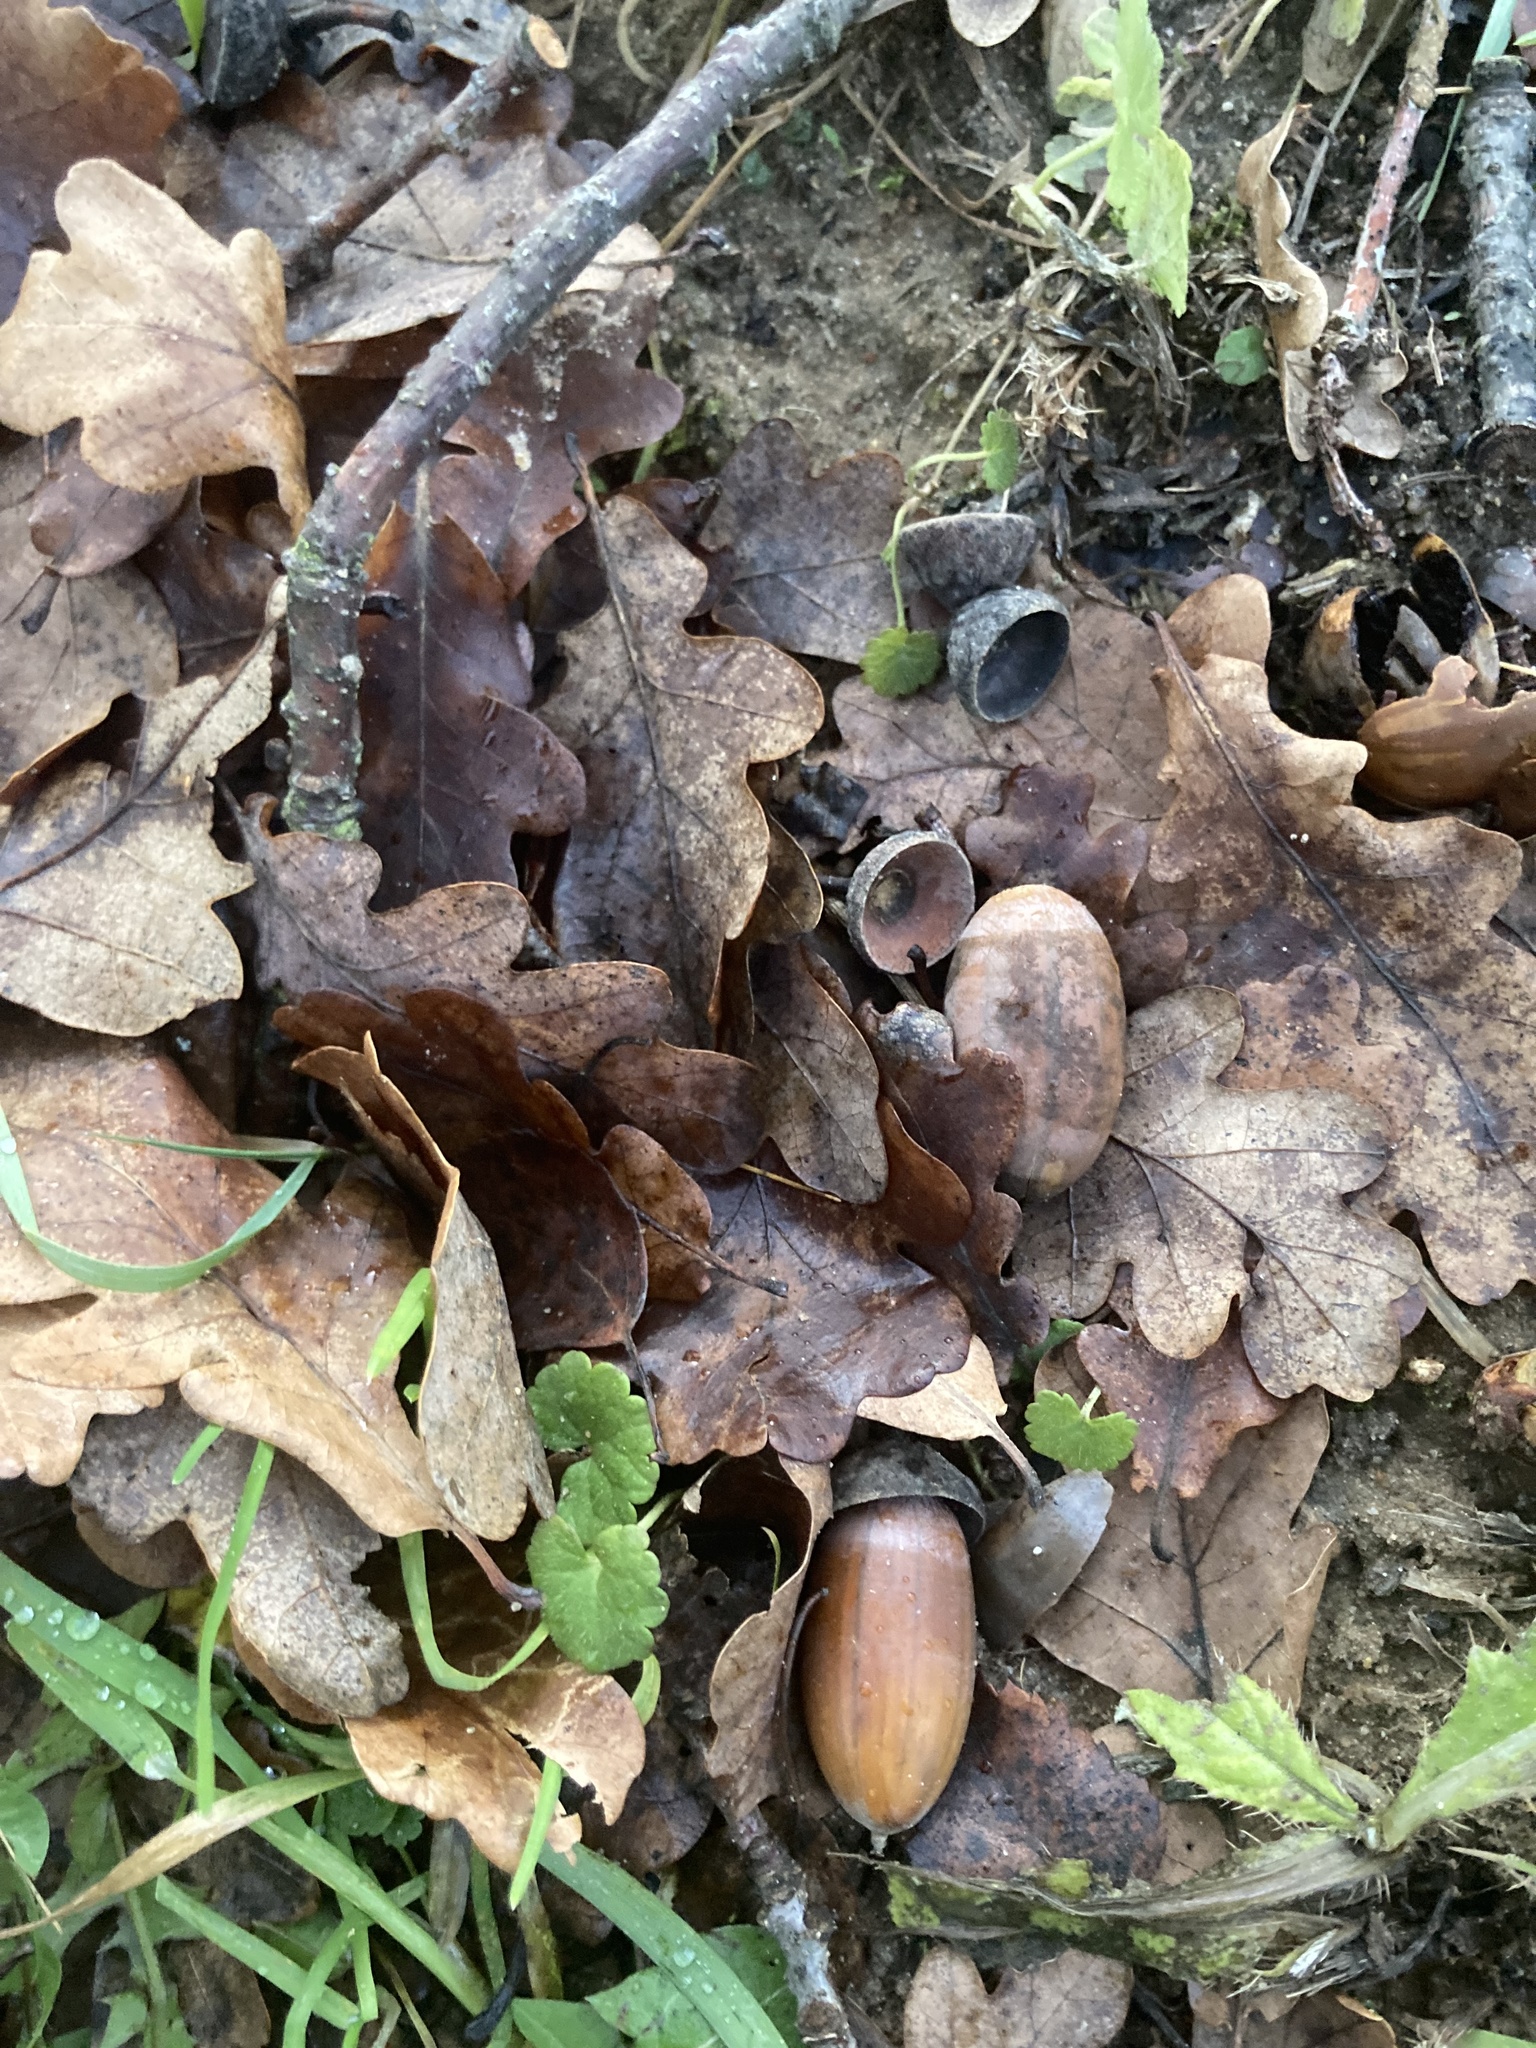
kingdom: Plantae
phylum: Tracheophyta
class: Magnoliopsida
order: Fagales
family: Fagaceae
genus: Quercus
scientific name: Quercus robur
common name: Pedunculate oak
